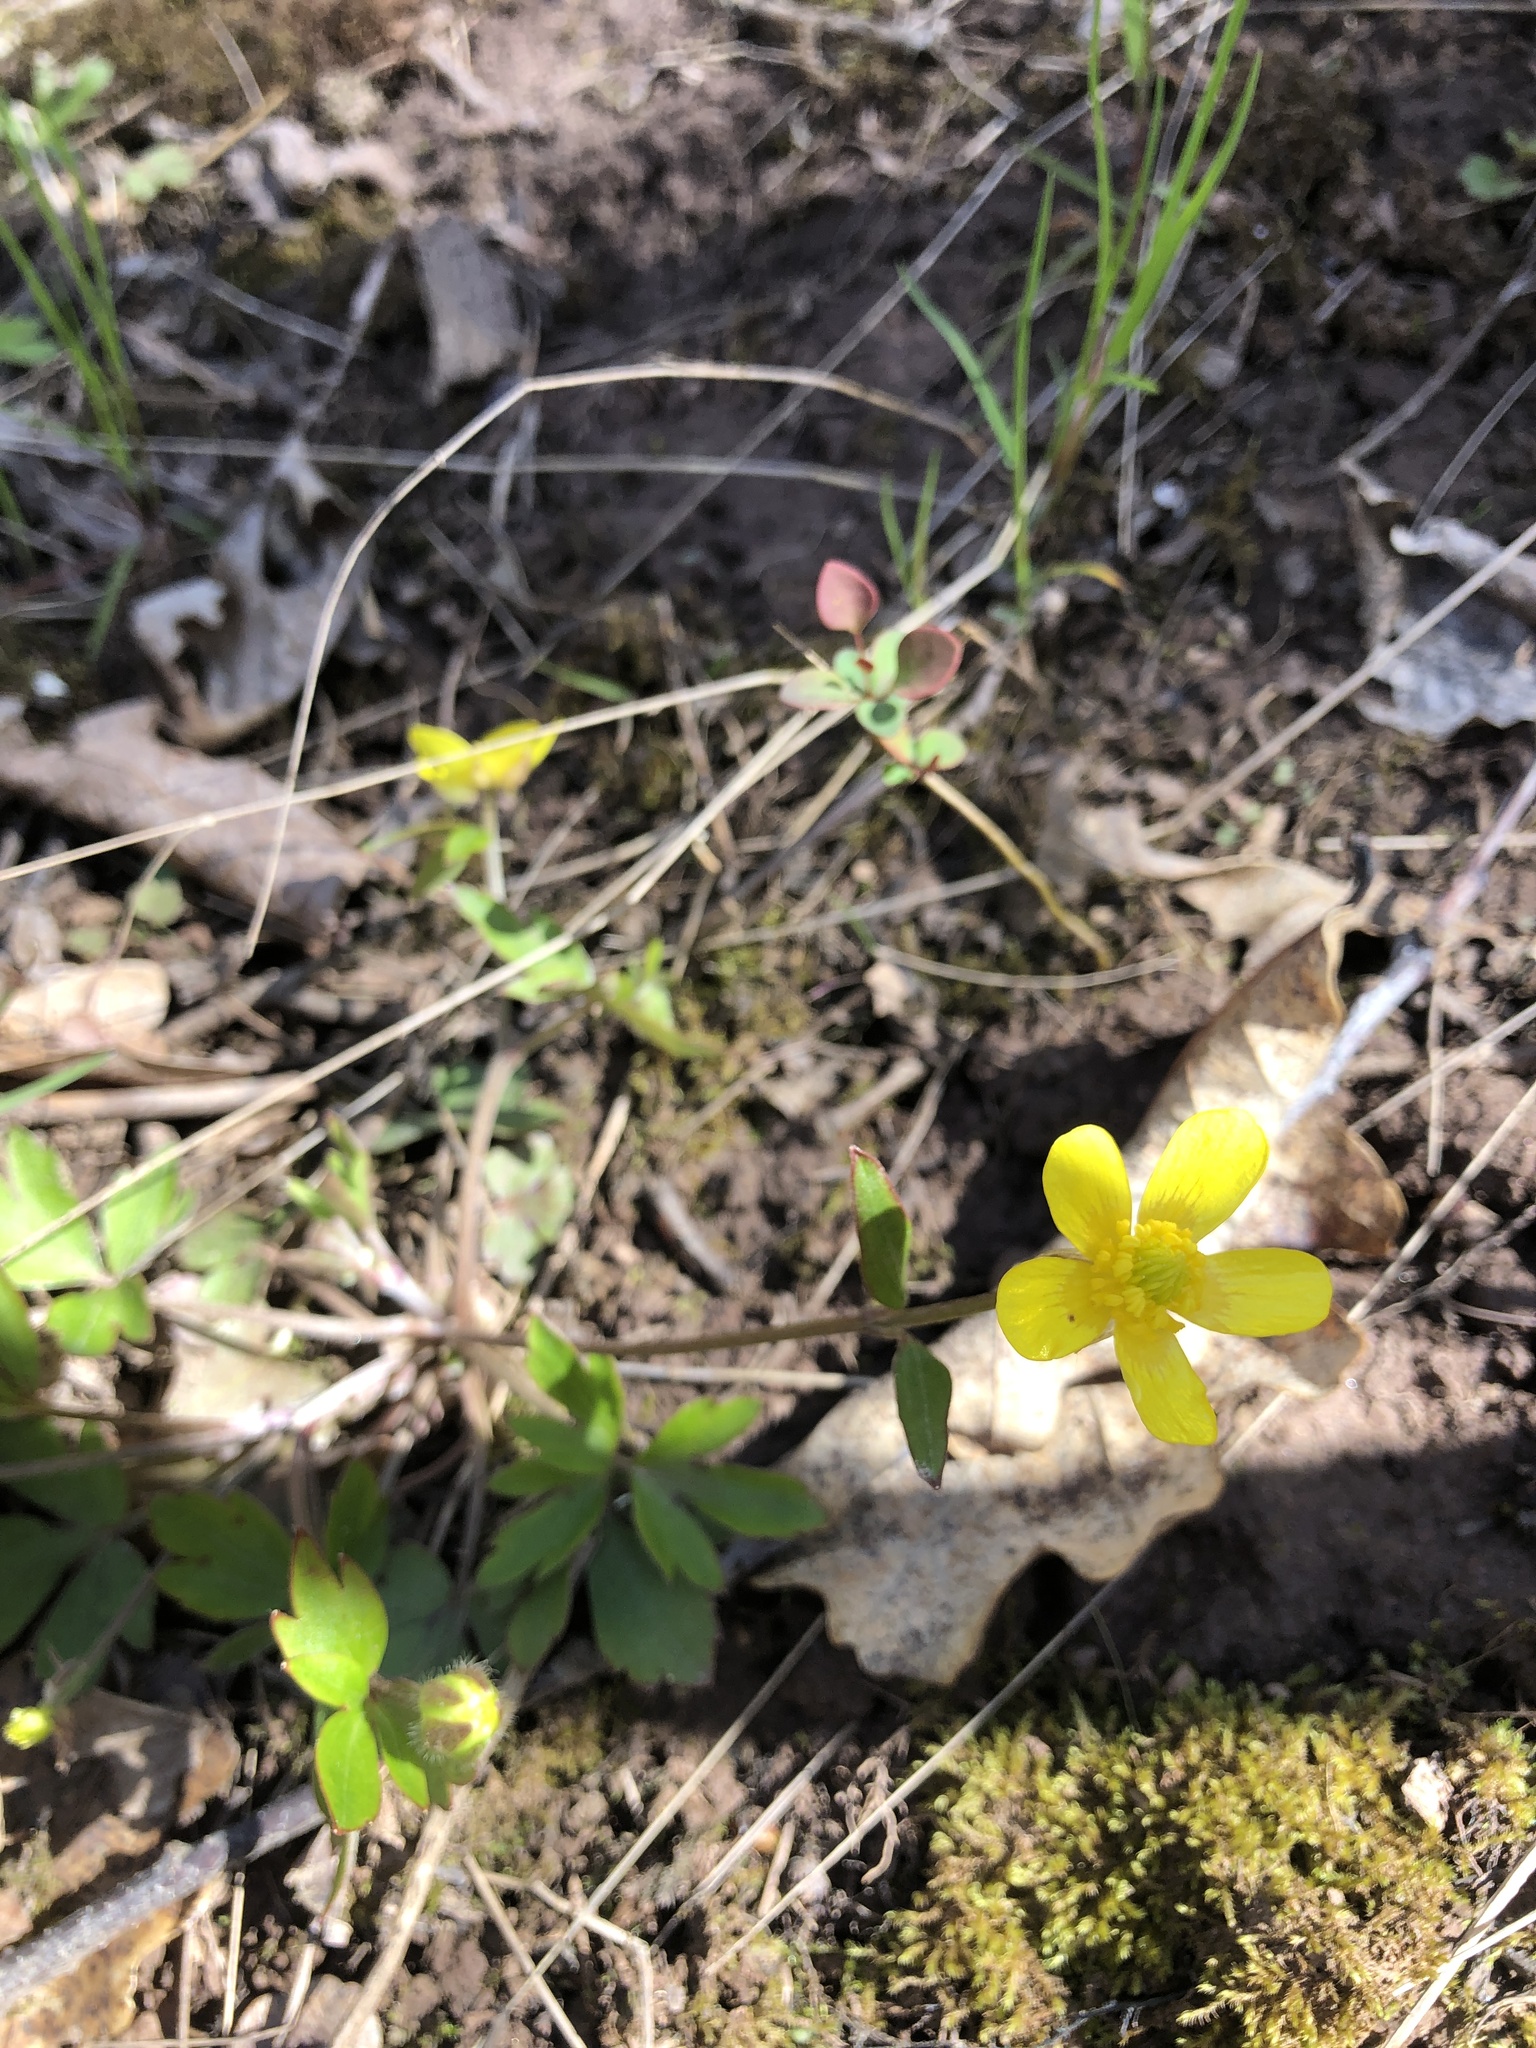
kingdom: Plantae
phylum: Tracheophyta
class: Magnoliopsida
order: Ranunculales
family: Ranunculaceae
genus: Ranunculus
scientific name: Ranunculus fascicularis
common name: Early buttercup
